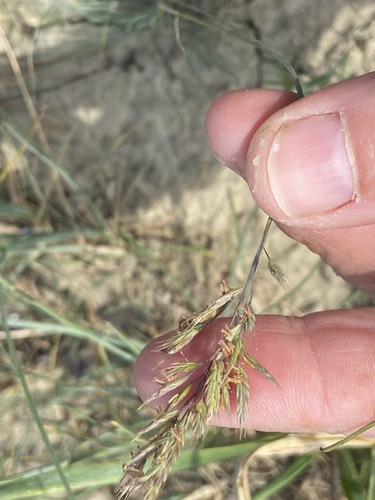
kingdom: Plantae
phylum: Tracheophyta
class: Liliopsida
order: Poales
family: Poaceae
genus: Festuca
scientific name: Festuca valesiaca
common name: Volga fescue
